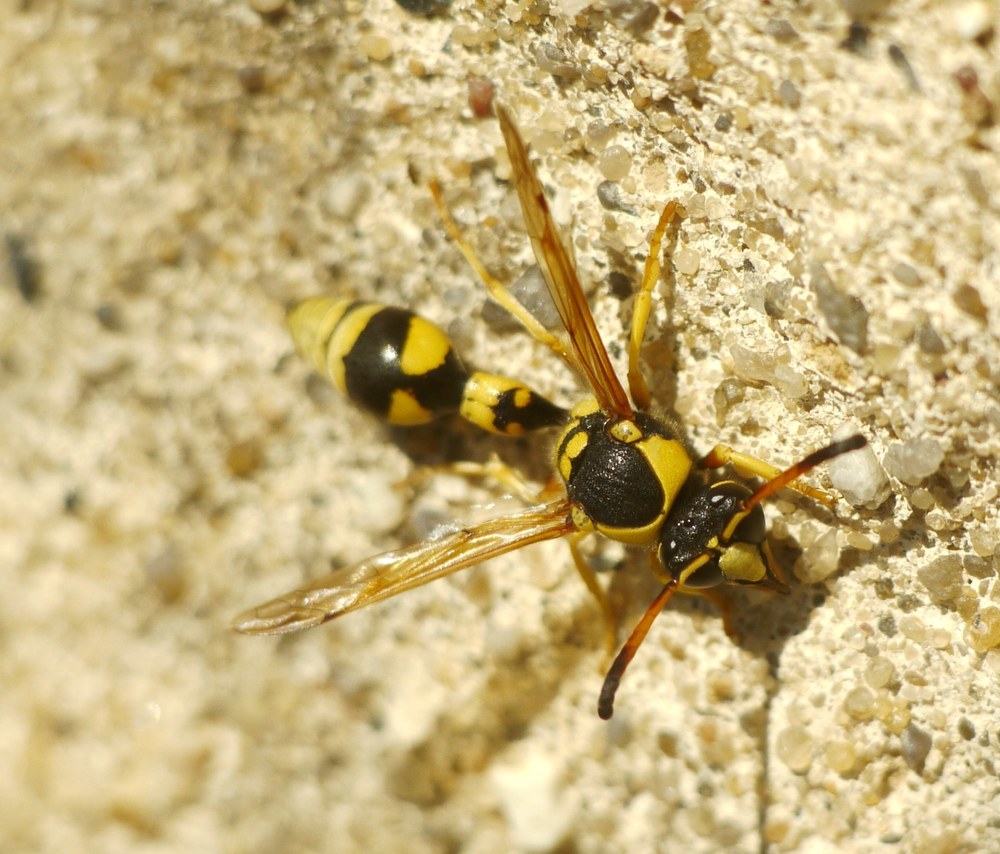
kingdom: Animalia
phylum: Arthropoda
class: Insecta
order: Hymenoptera
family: Eumenidae
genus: Katamenes
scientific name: Katamenes dimidiatus
